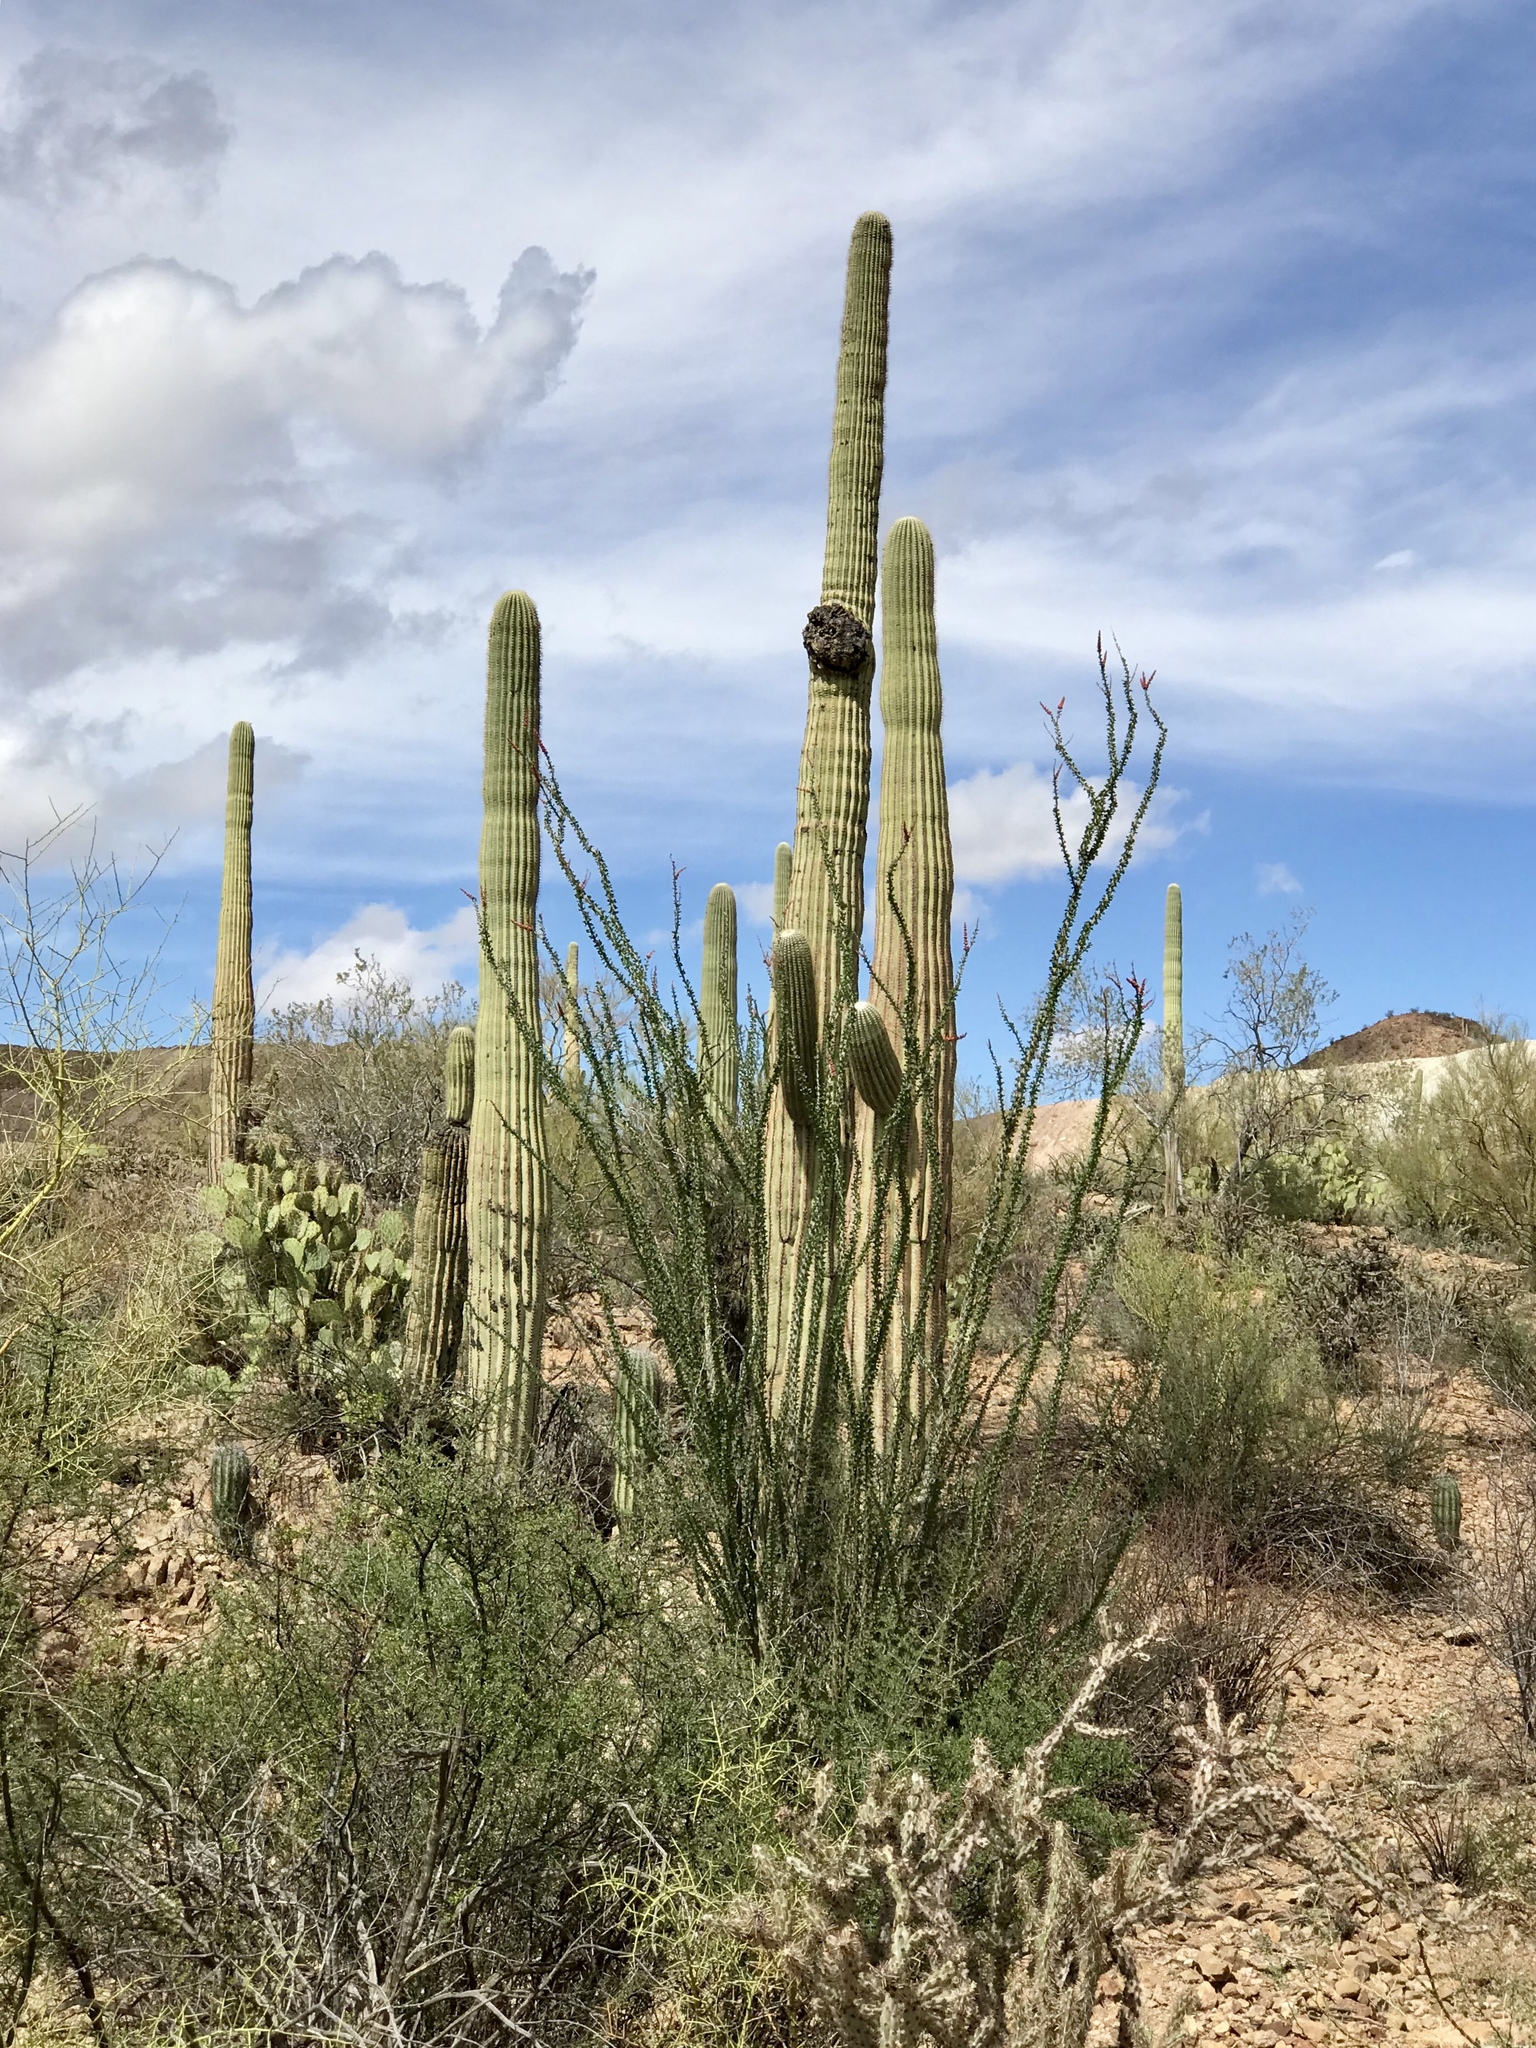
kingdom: Plantae
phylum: Tracheophyta
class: Magnoliopsida
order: Caryophyllales
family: Cactaceae
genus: Carnegiea
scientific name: Carnegiea gigantea
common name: Saguaro
